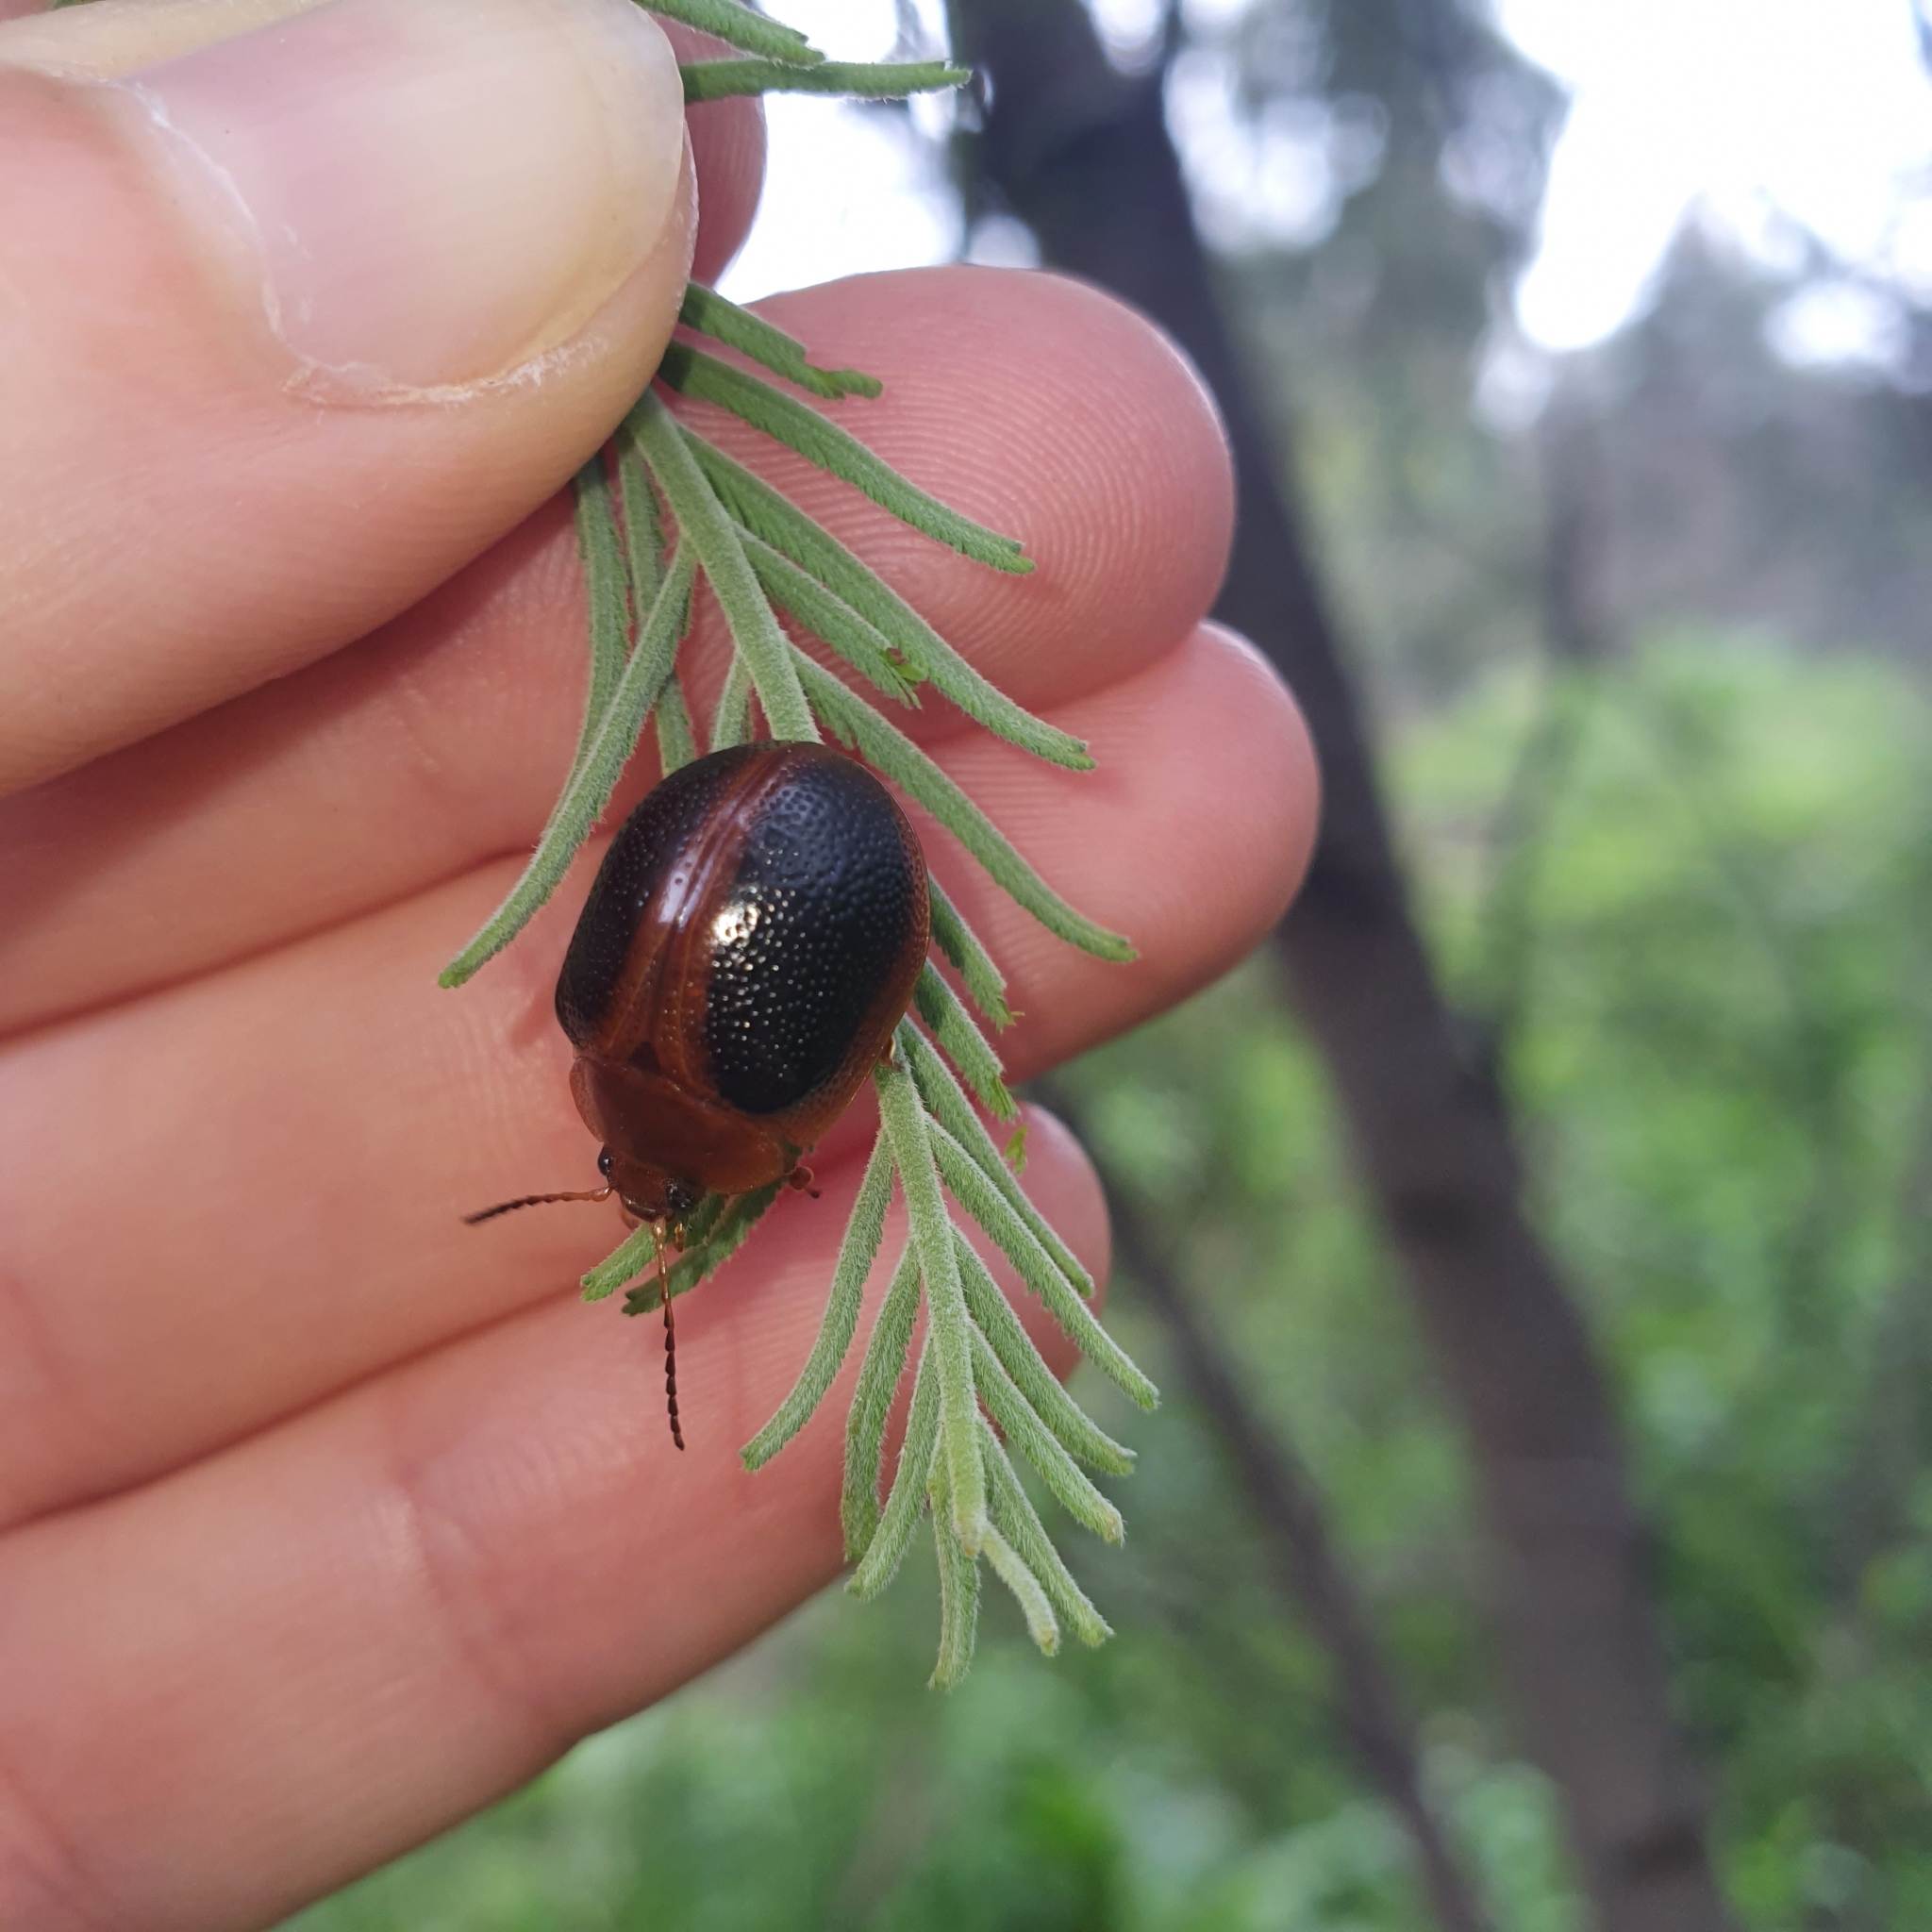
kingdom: Animalia
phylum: Arthropoda
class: Insecta
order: Coleoptera
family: Chrysomelidae
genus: Dicranosterna
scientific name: Dicranosterna
